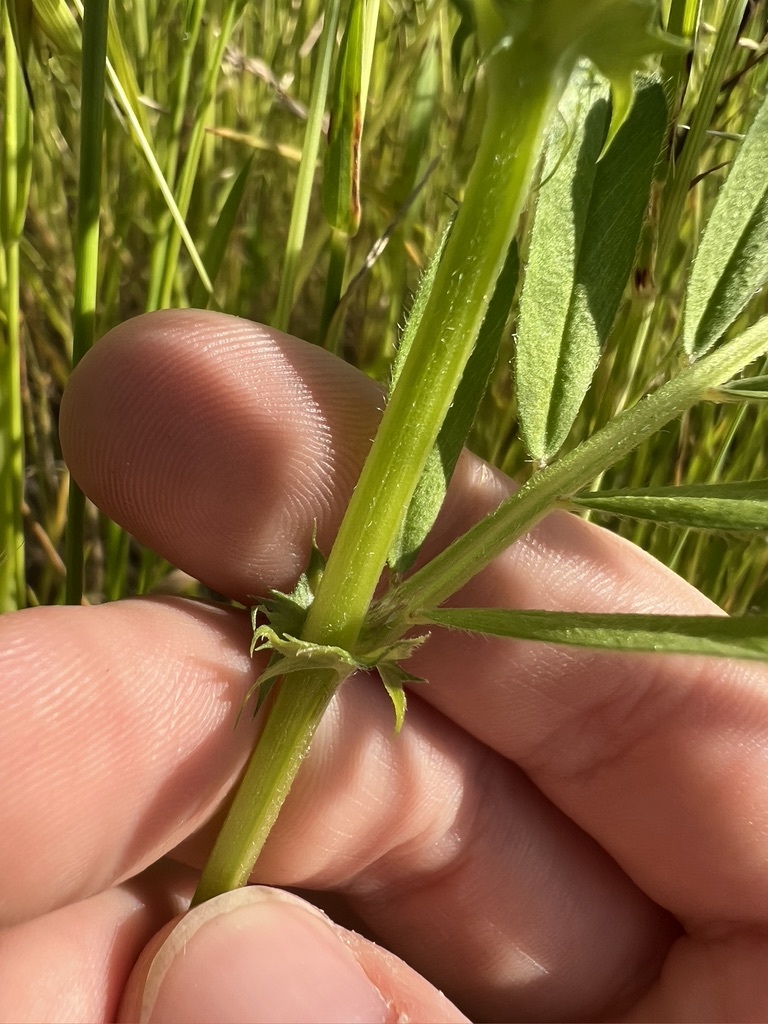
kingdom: Plantae
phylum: Tracheophyta
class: Magnoliopsida
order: Fabales
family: Fabaceae
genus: Vicia
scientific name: Vicia sativa
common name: Garden vetch
